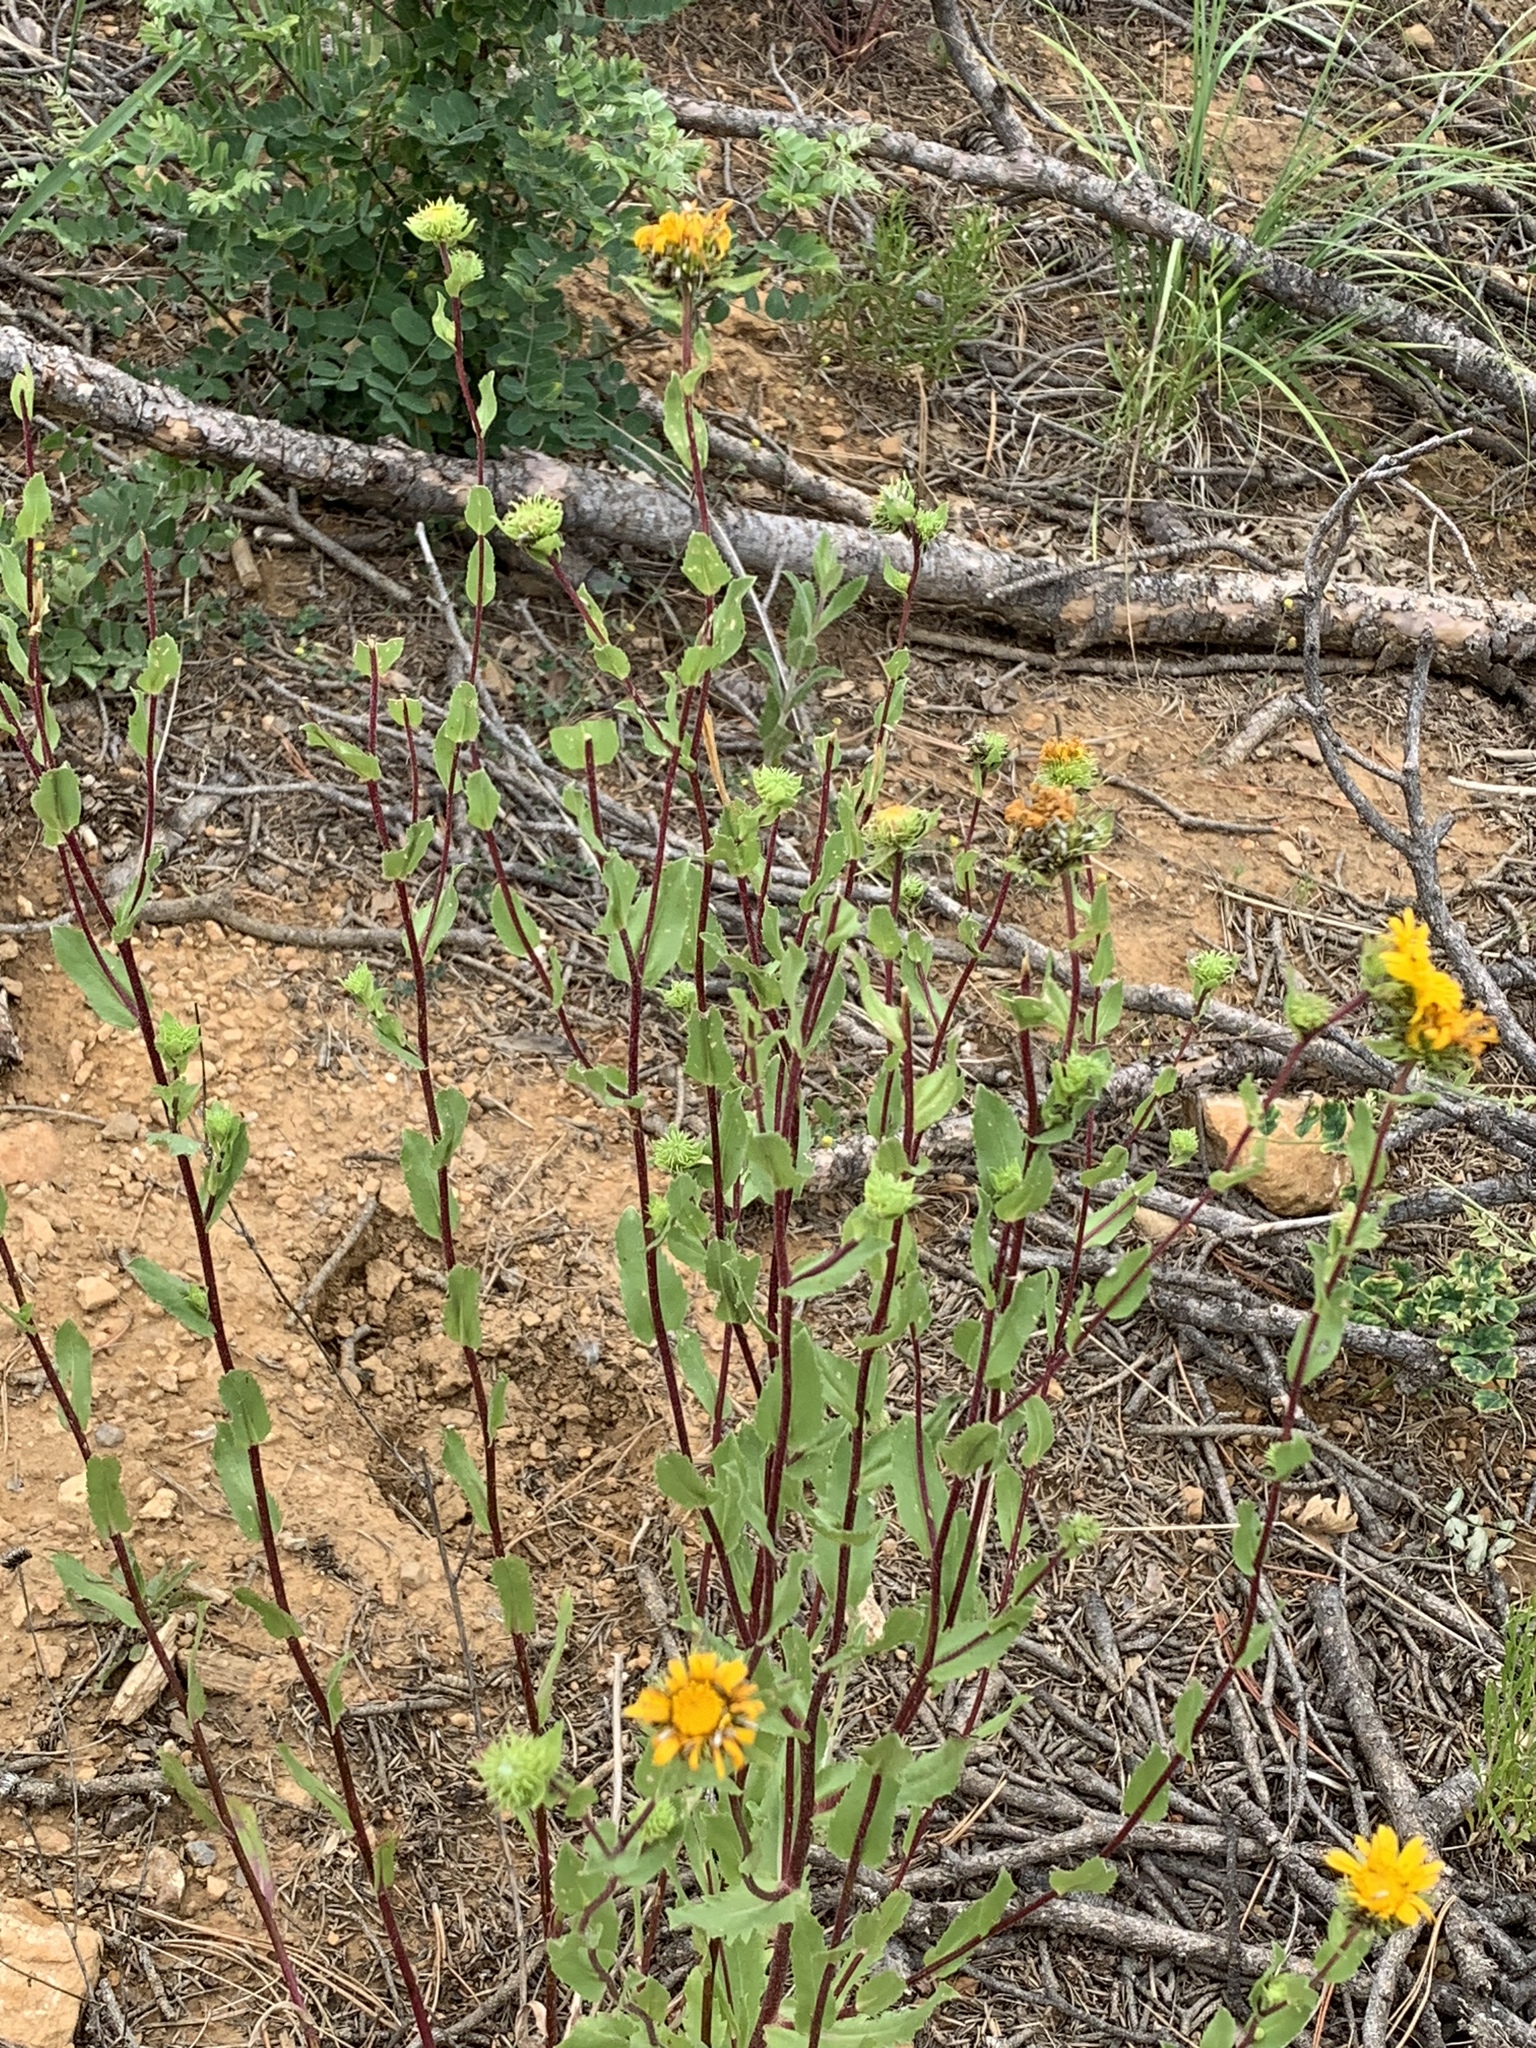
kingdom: Plantae
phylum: Tracheophyta
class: Magnoliopsida
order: Asterales
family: Asteraceae
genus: Grindelia
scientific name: Grindelia scabra
